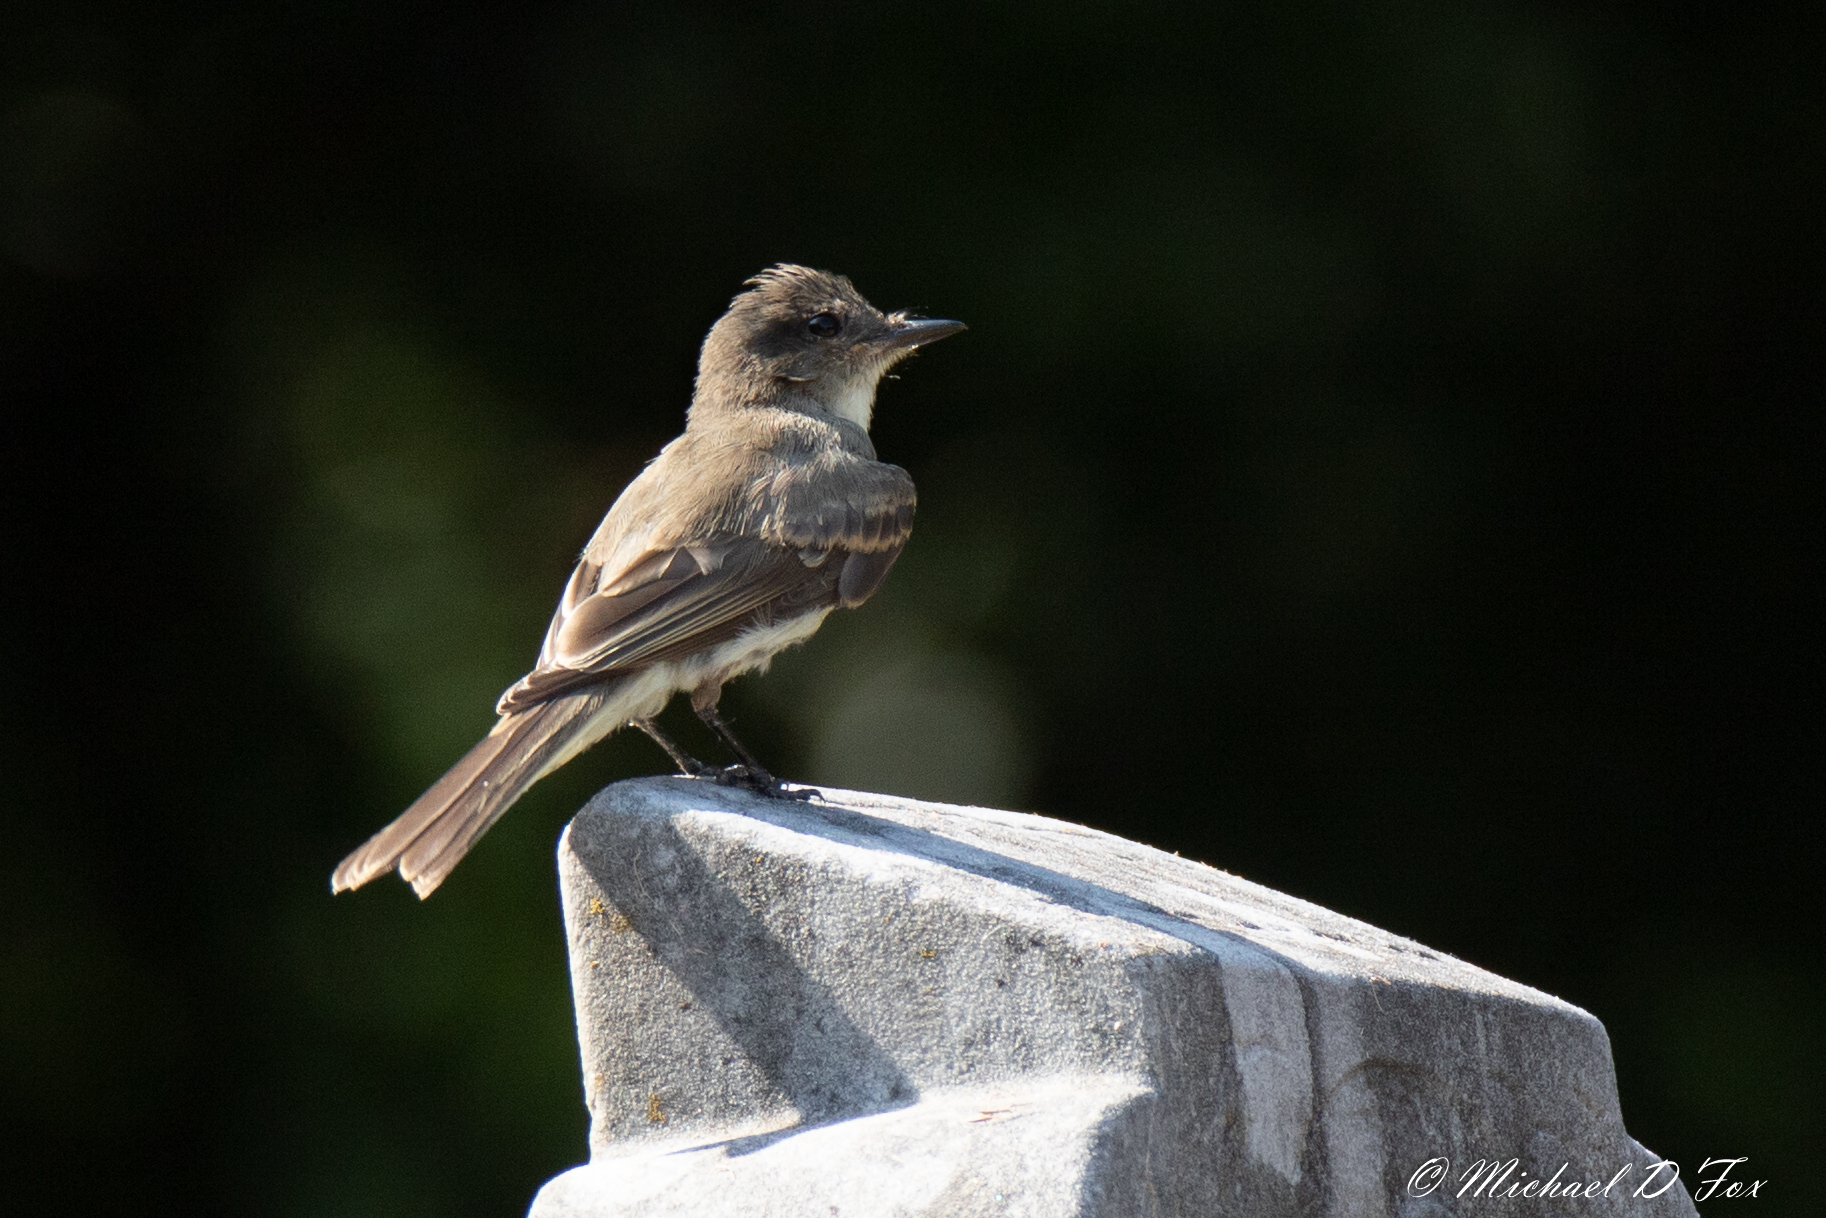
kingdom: Animalia
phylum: Chordata
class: Aves
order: Passeriformes
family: Tyrannidae
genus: Sayornis
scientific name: Sayornis phoebe
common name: Eastern phoebe
